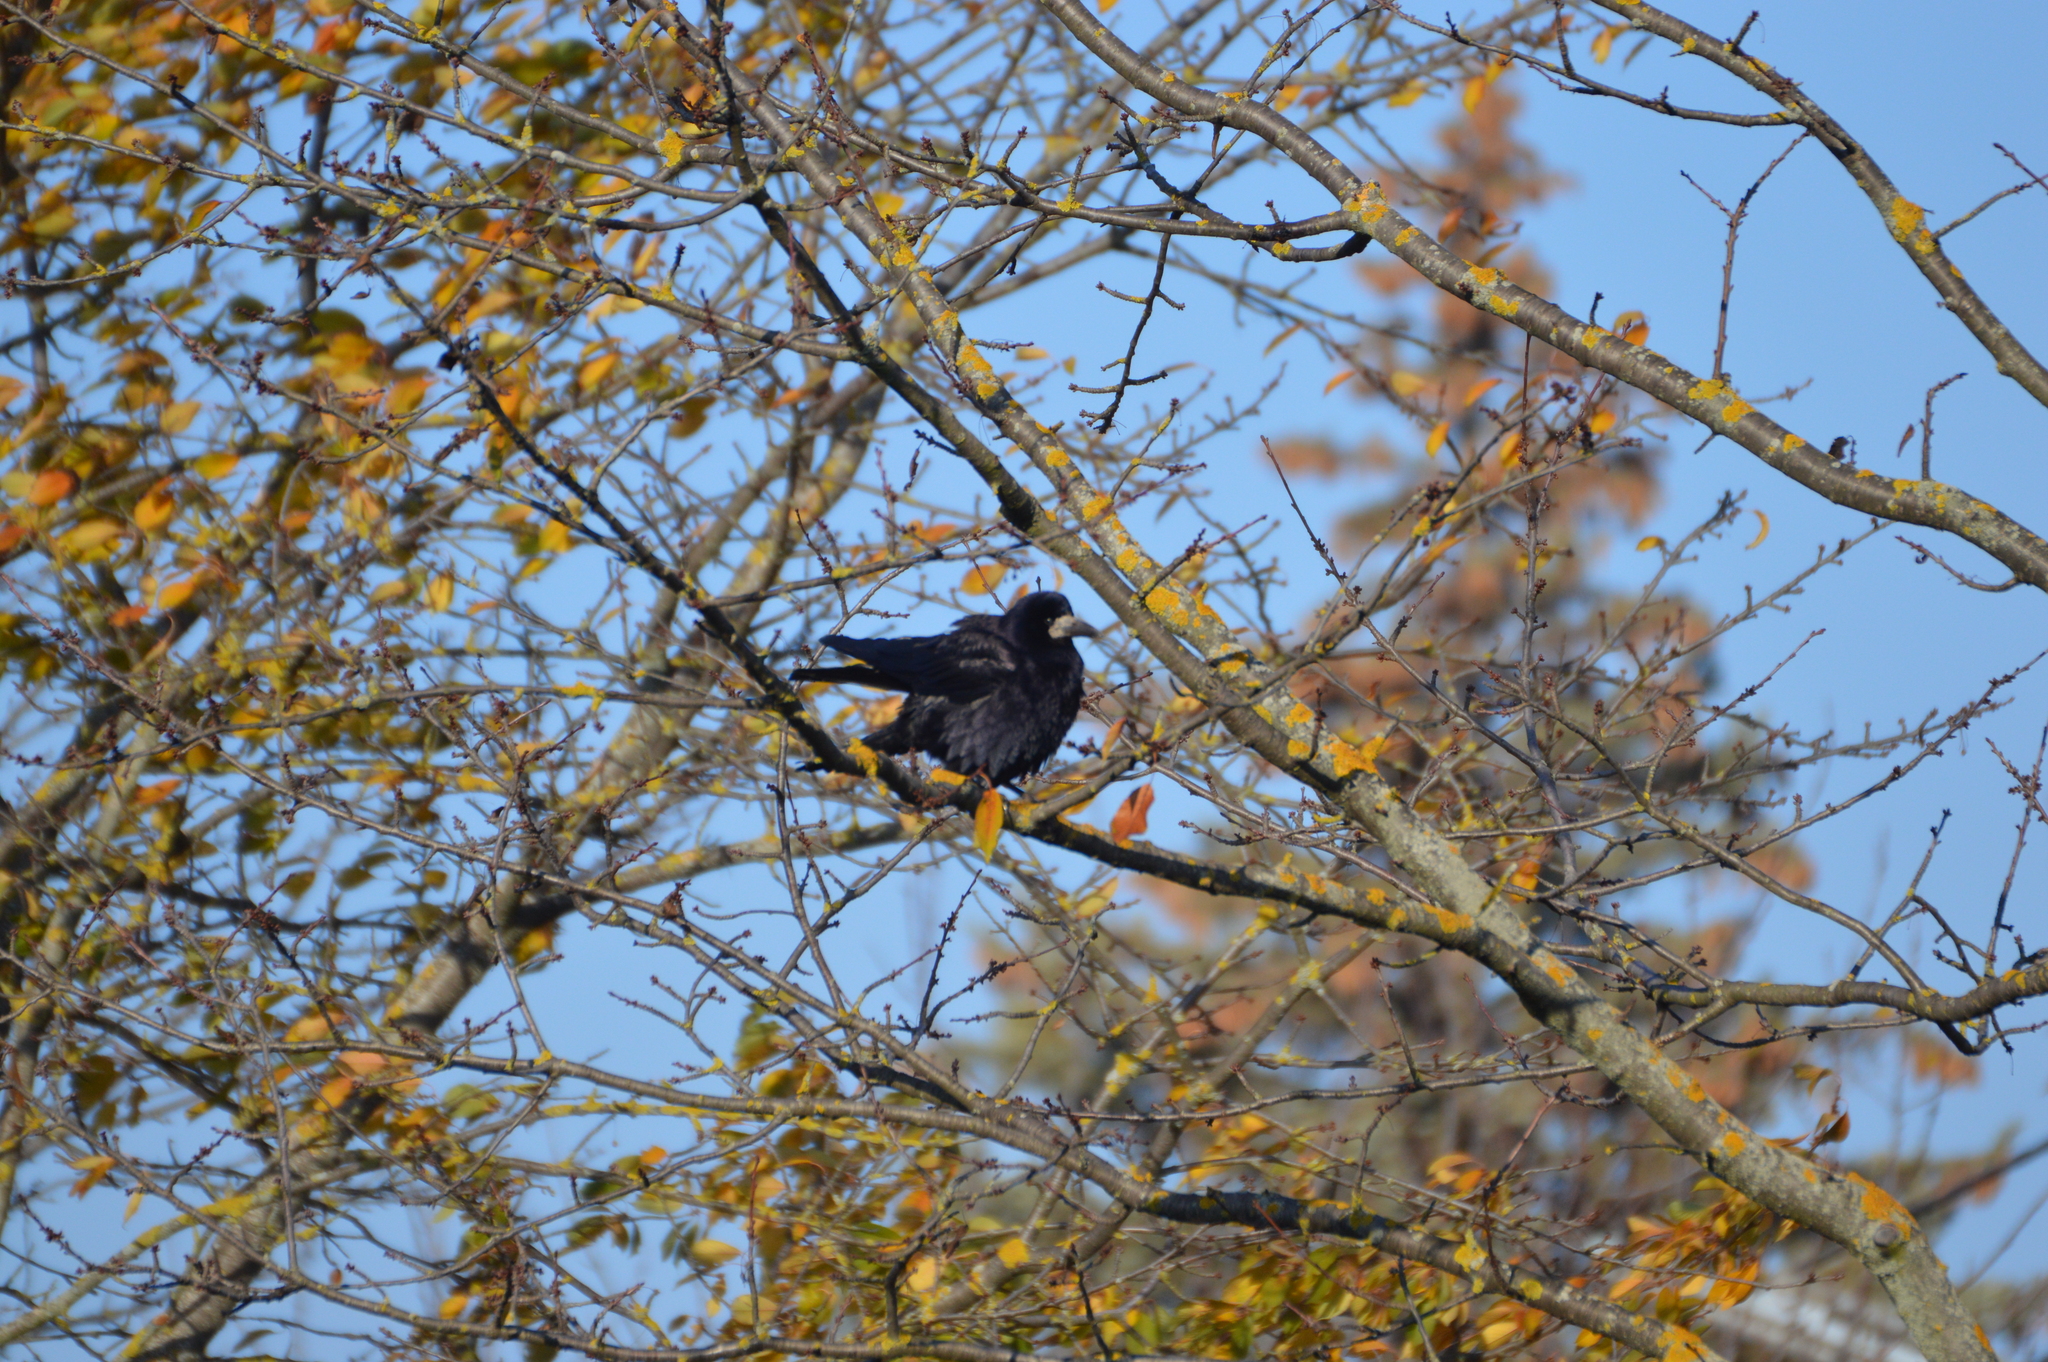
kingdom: Animalia
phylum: Chordata
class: Aves
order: Passeriformes
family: Corvidae
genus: Corvus
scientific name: Corvus frugilegus
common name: Rook
